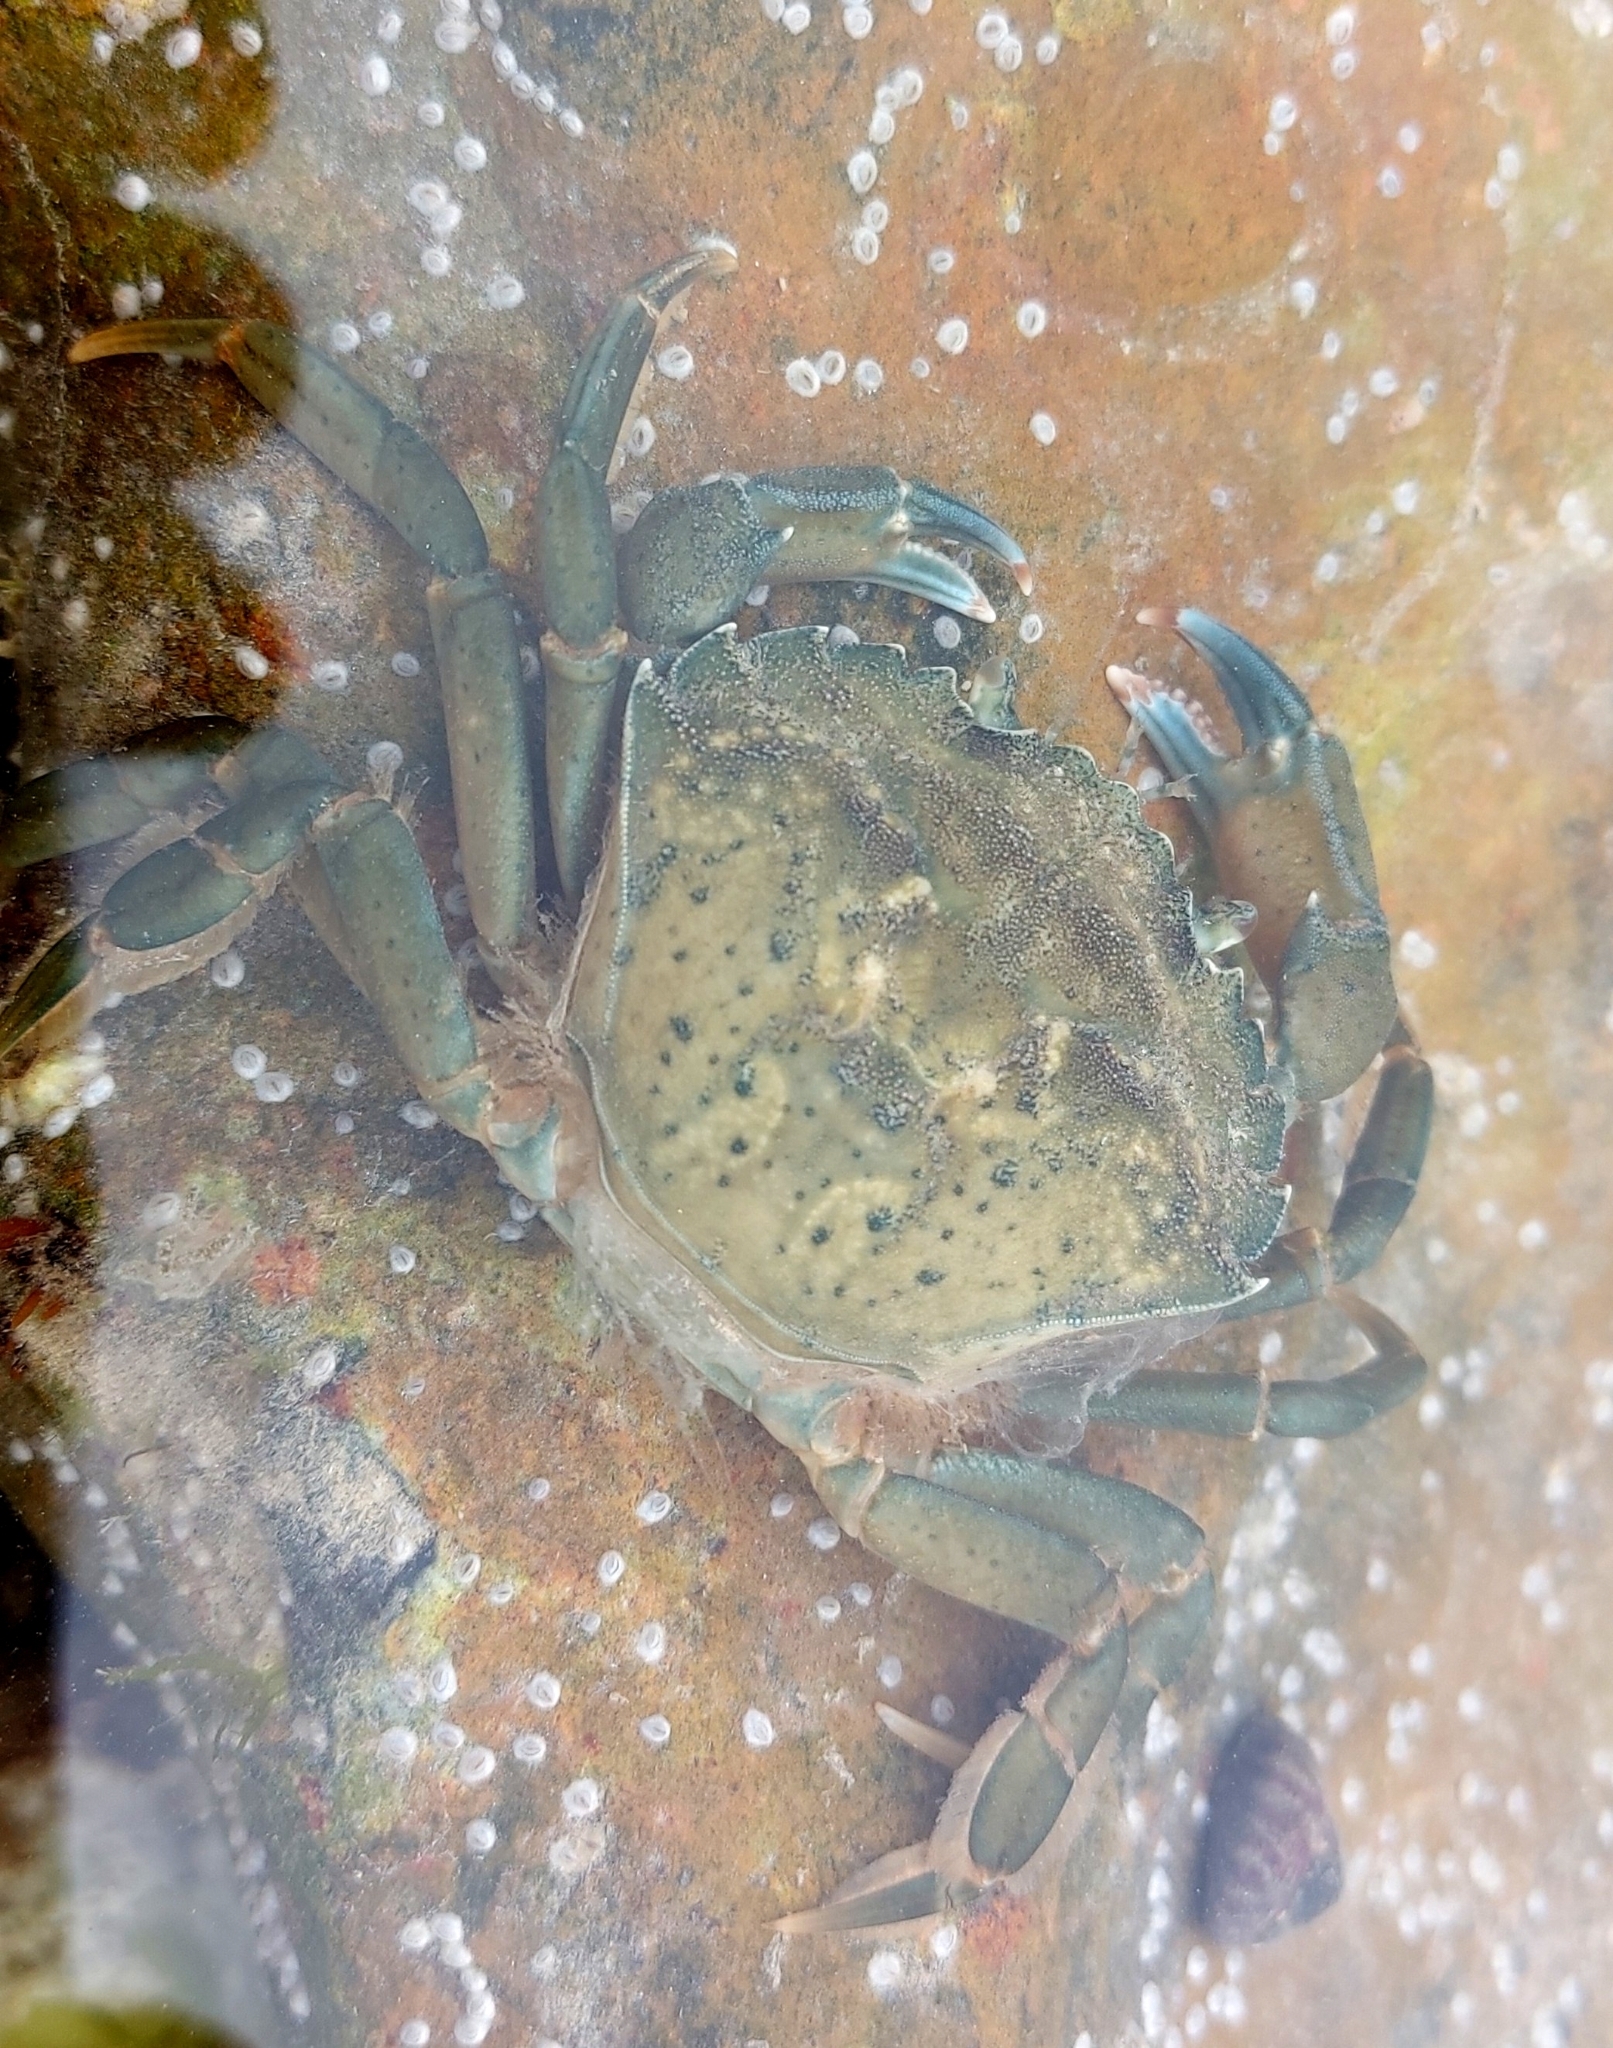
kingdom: Animalia
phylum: Arthropoda
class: Malacostraca
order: Decapoda
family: Carcinidae
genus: Carcinus
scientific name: Carcinus maenas
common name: European green crab
